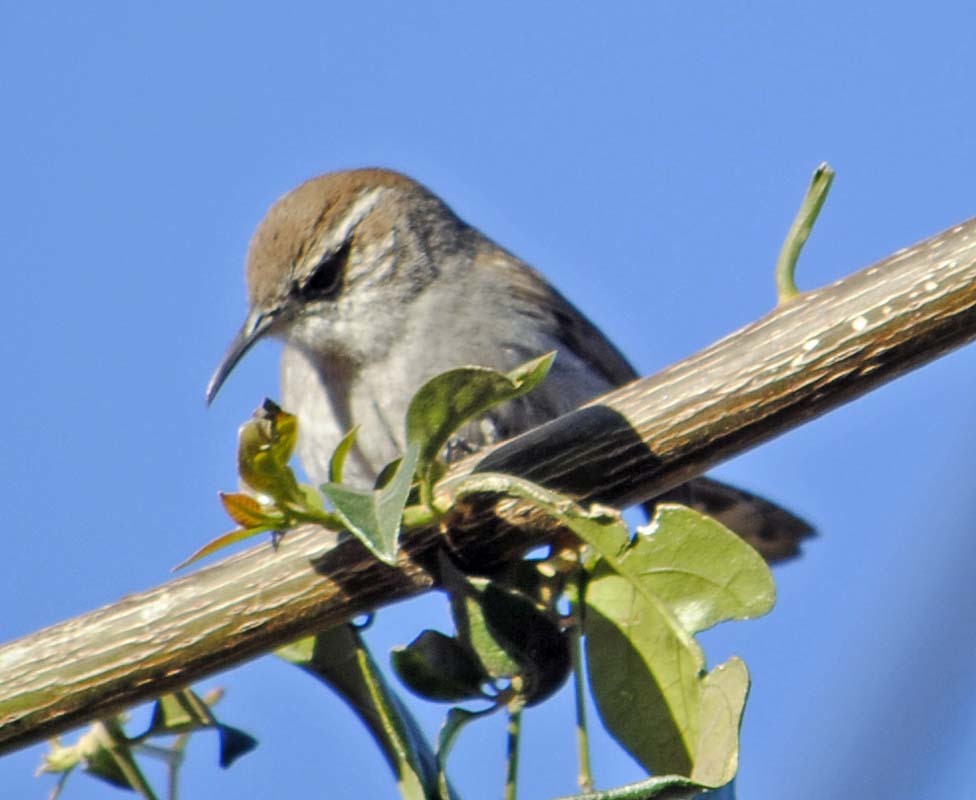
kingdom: Animalia
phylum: Chordata
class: Aves
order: Passeriformes
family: Troglodytidae
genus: Thryomanes
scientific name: Thryomanes bewickii
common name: Bewick's wren
